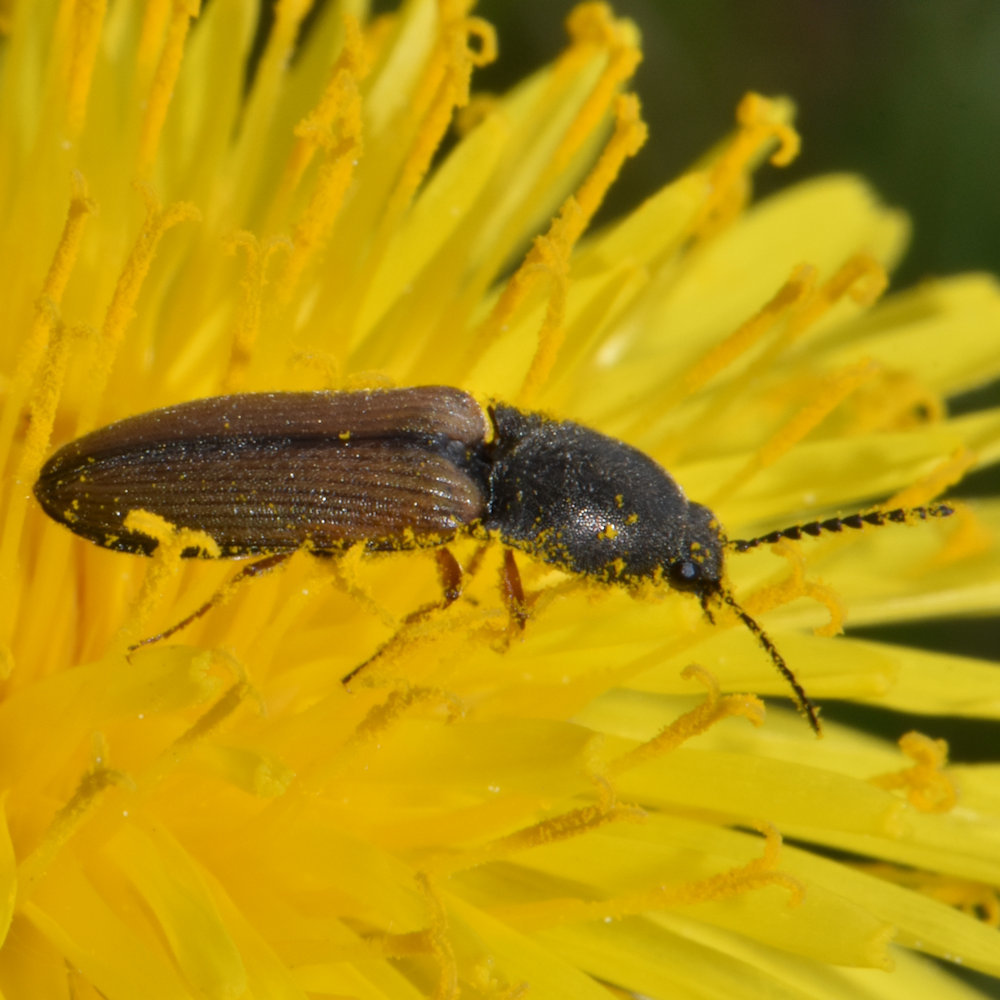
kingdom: Animalia
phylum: Arthropoda
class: Insecta
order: Coleoptera
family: Elateridae
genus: Corymbitodes
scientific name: Corymbitodes tarsalis
